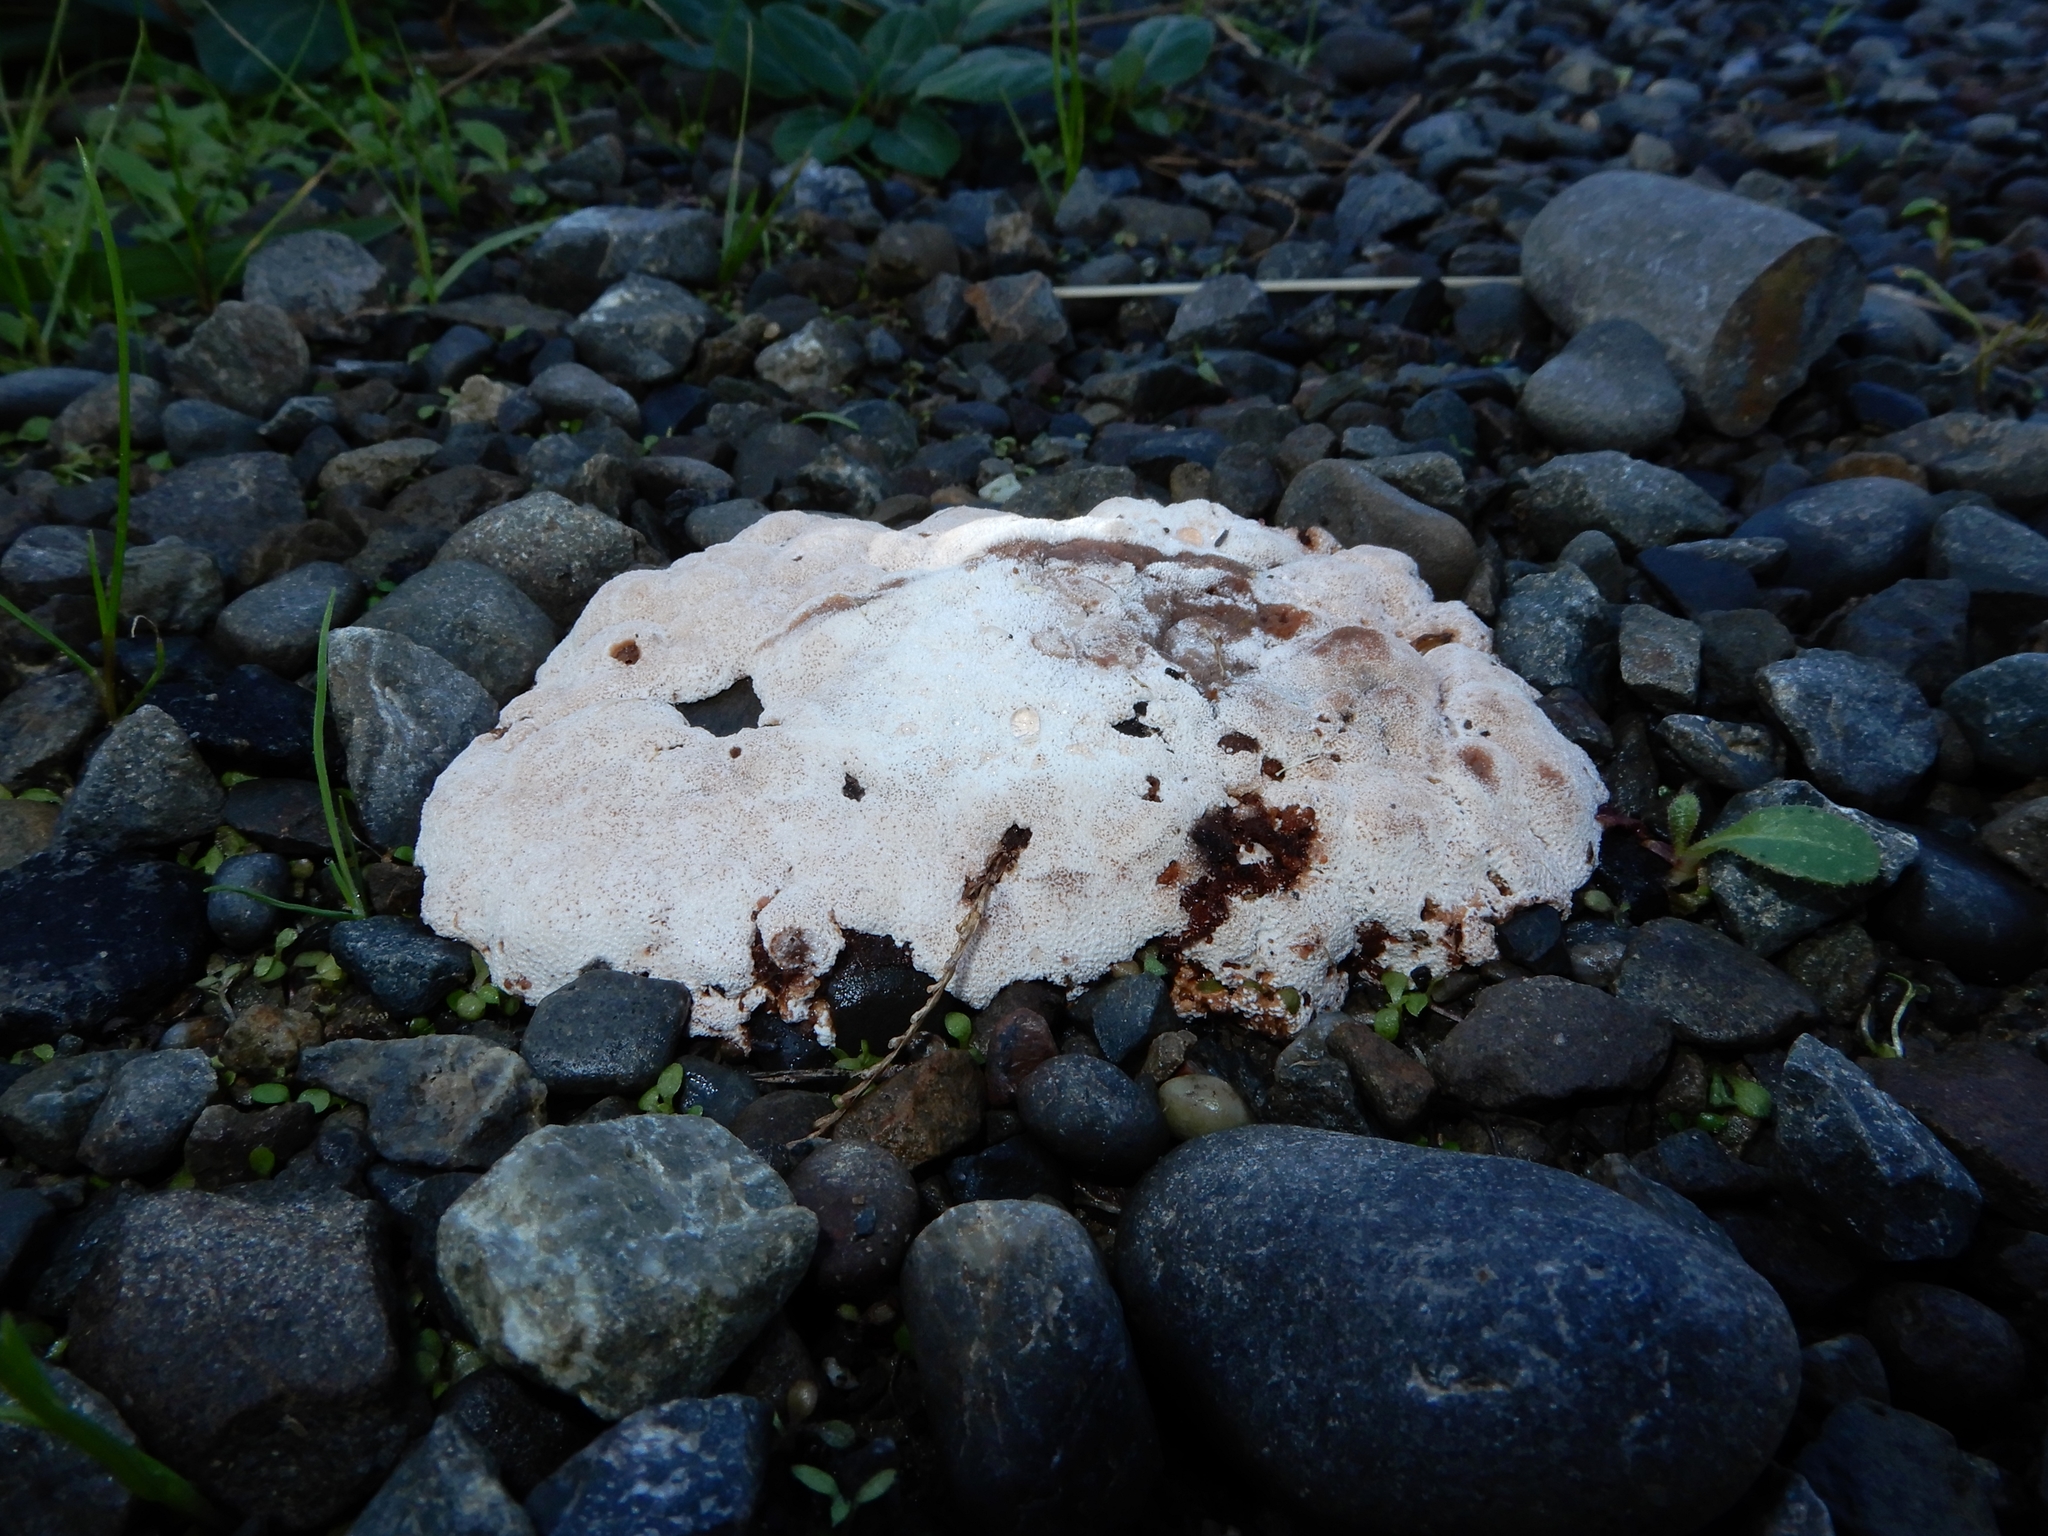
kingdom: Fungi
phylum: Basidiomycota
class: Agaricomycetes
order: Polyporales
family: Podoscyphaceae
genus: Abortiporus
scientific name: Abortiporus biennis
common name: Blushing rosette
